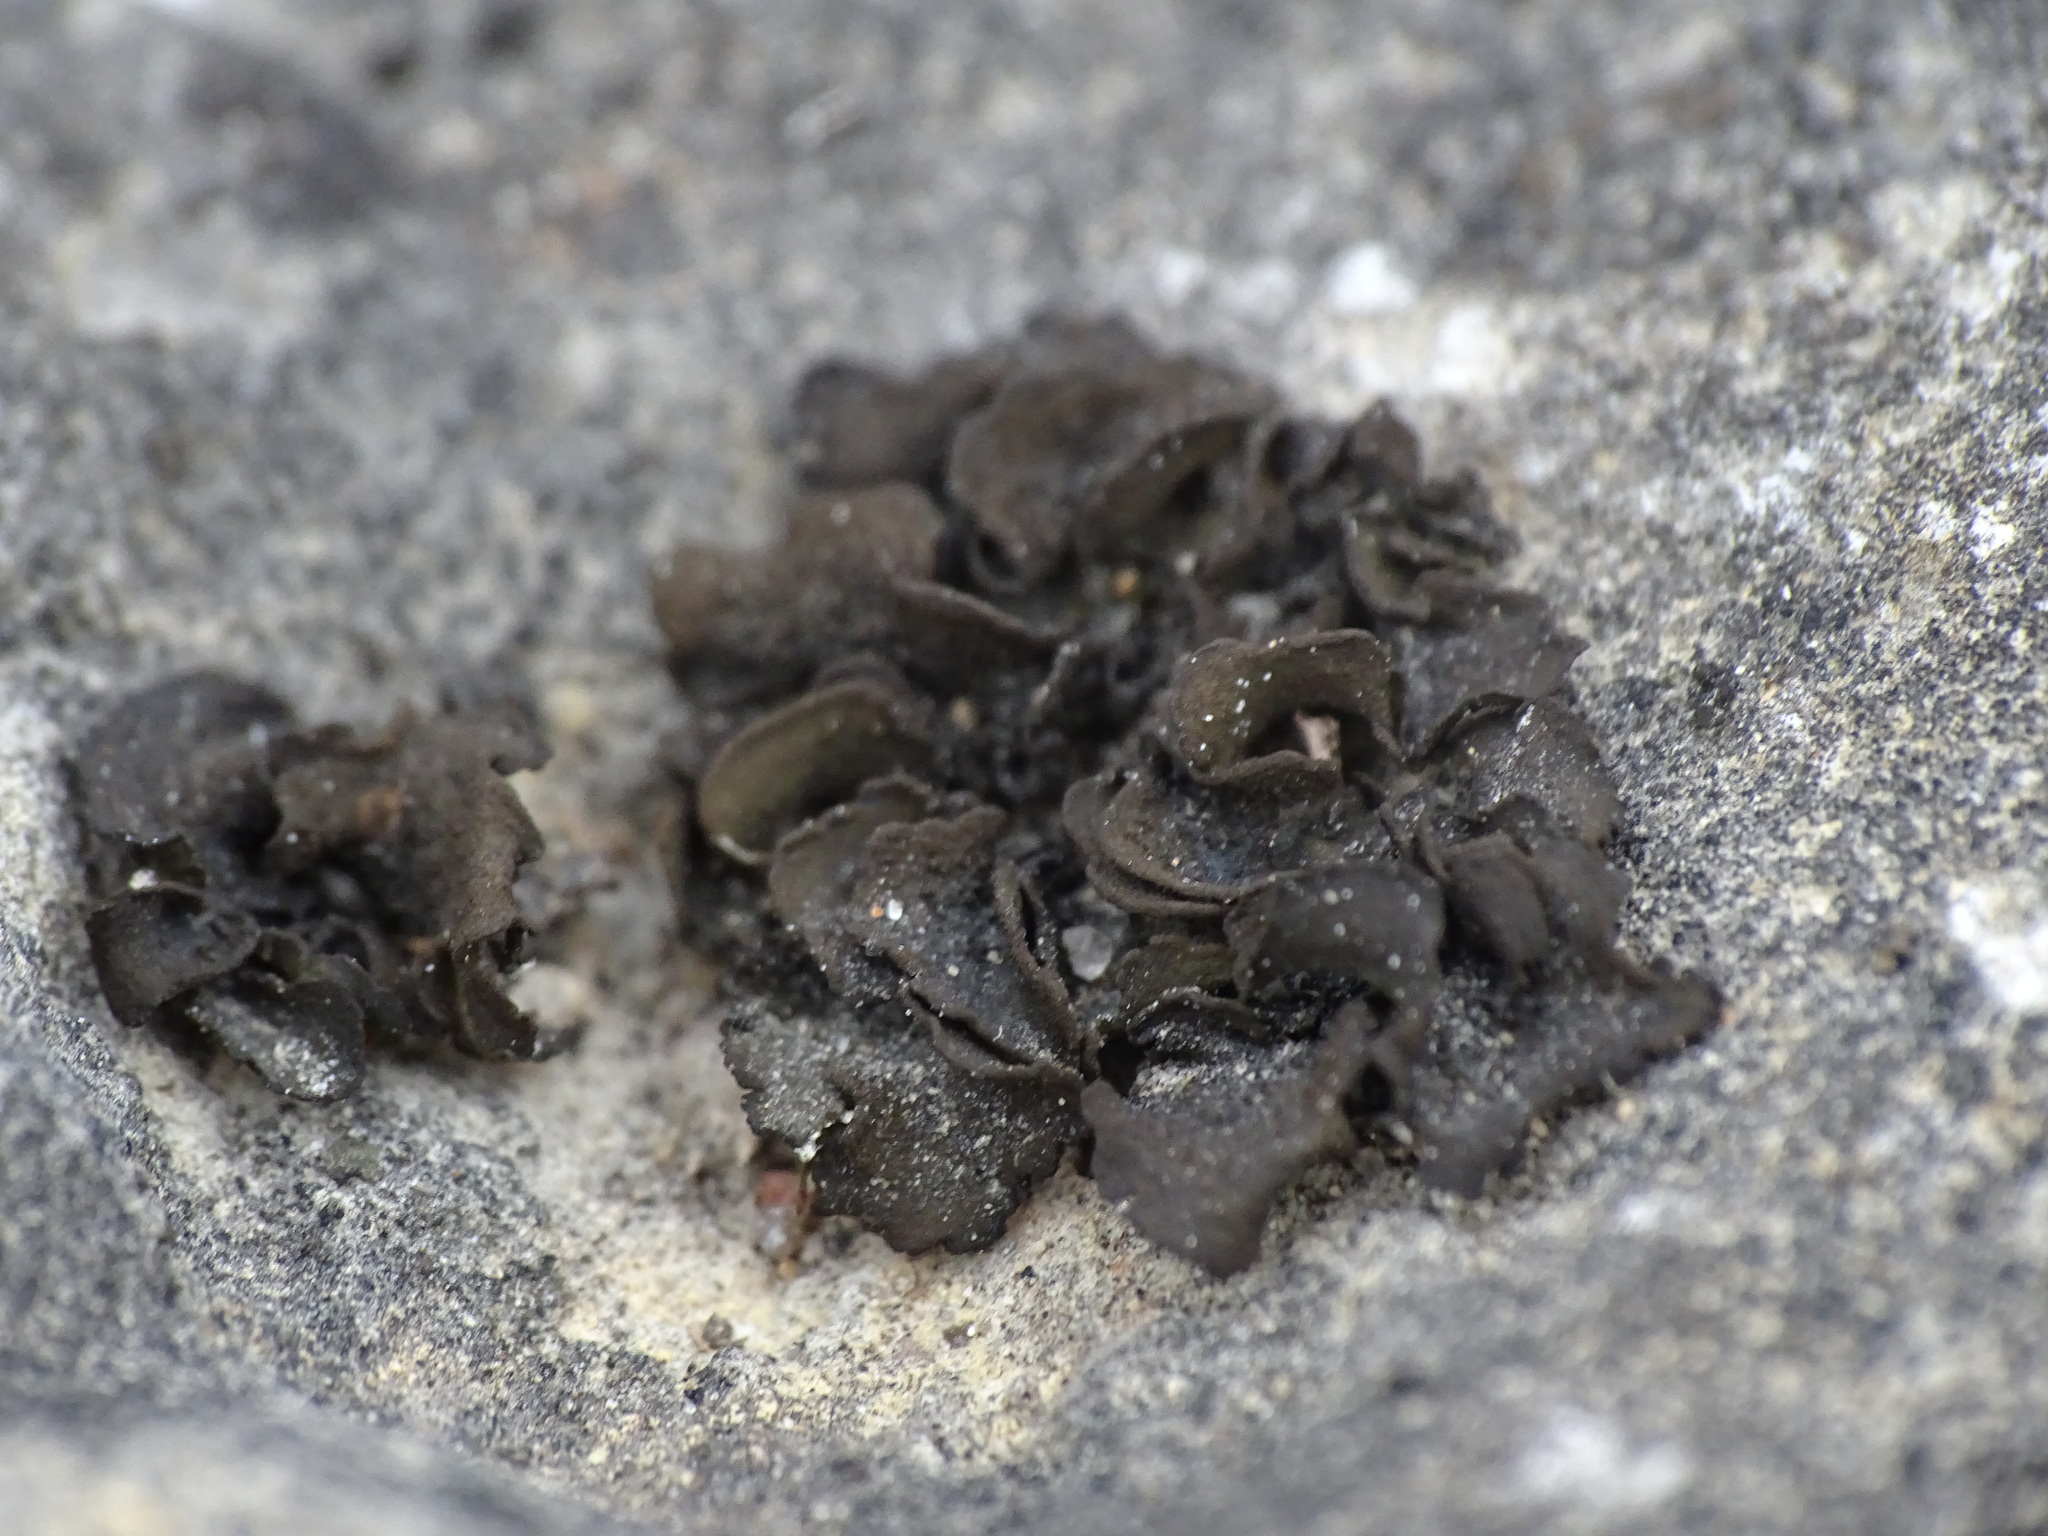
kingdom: Fungi
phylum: Ascomycota
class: Lecanoromycetes
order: Peltigerales
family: Collemataceae
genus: Lathagrium
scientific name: Lathagrium undulatum
